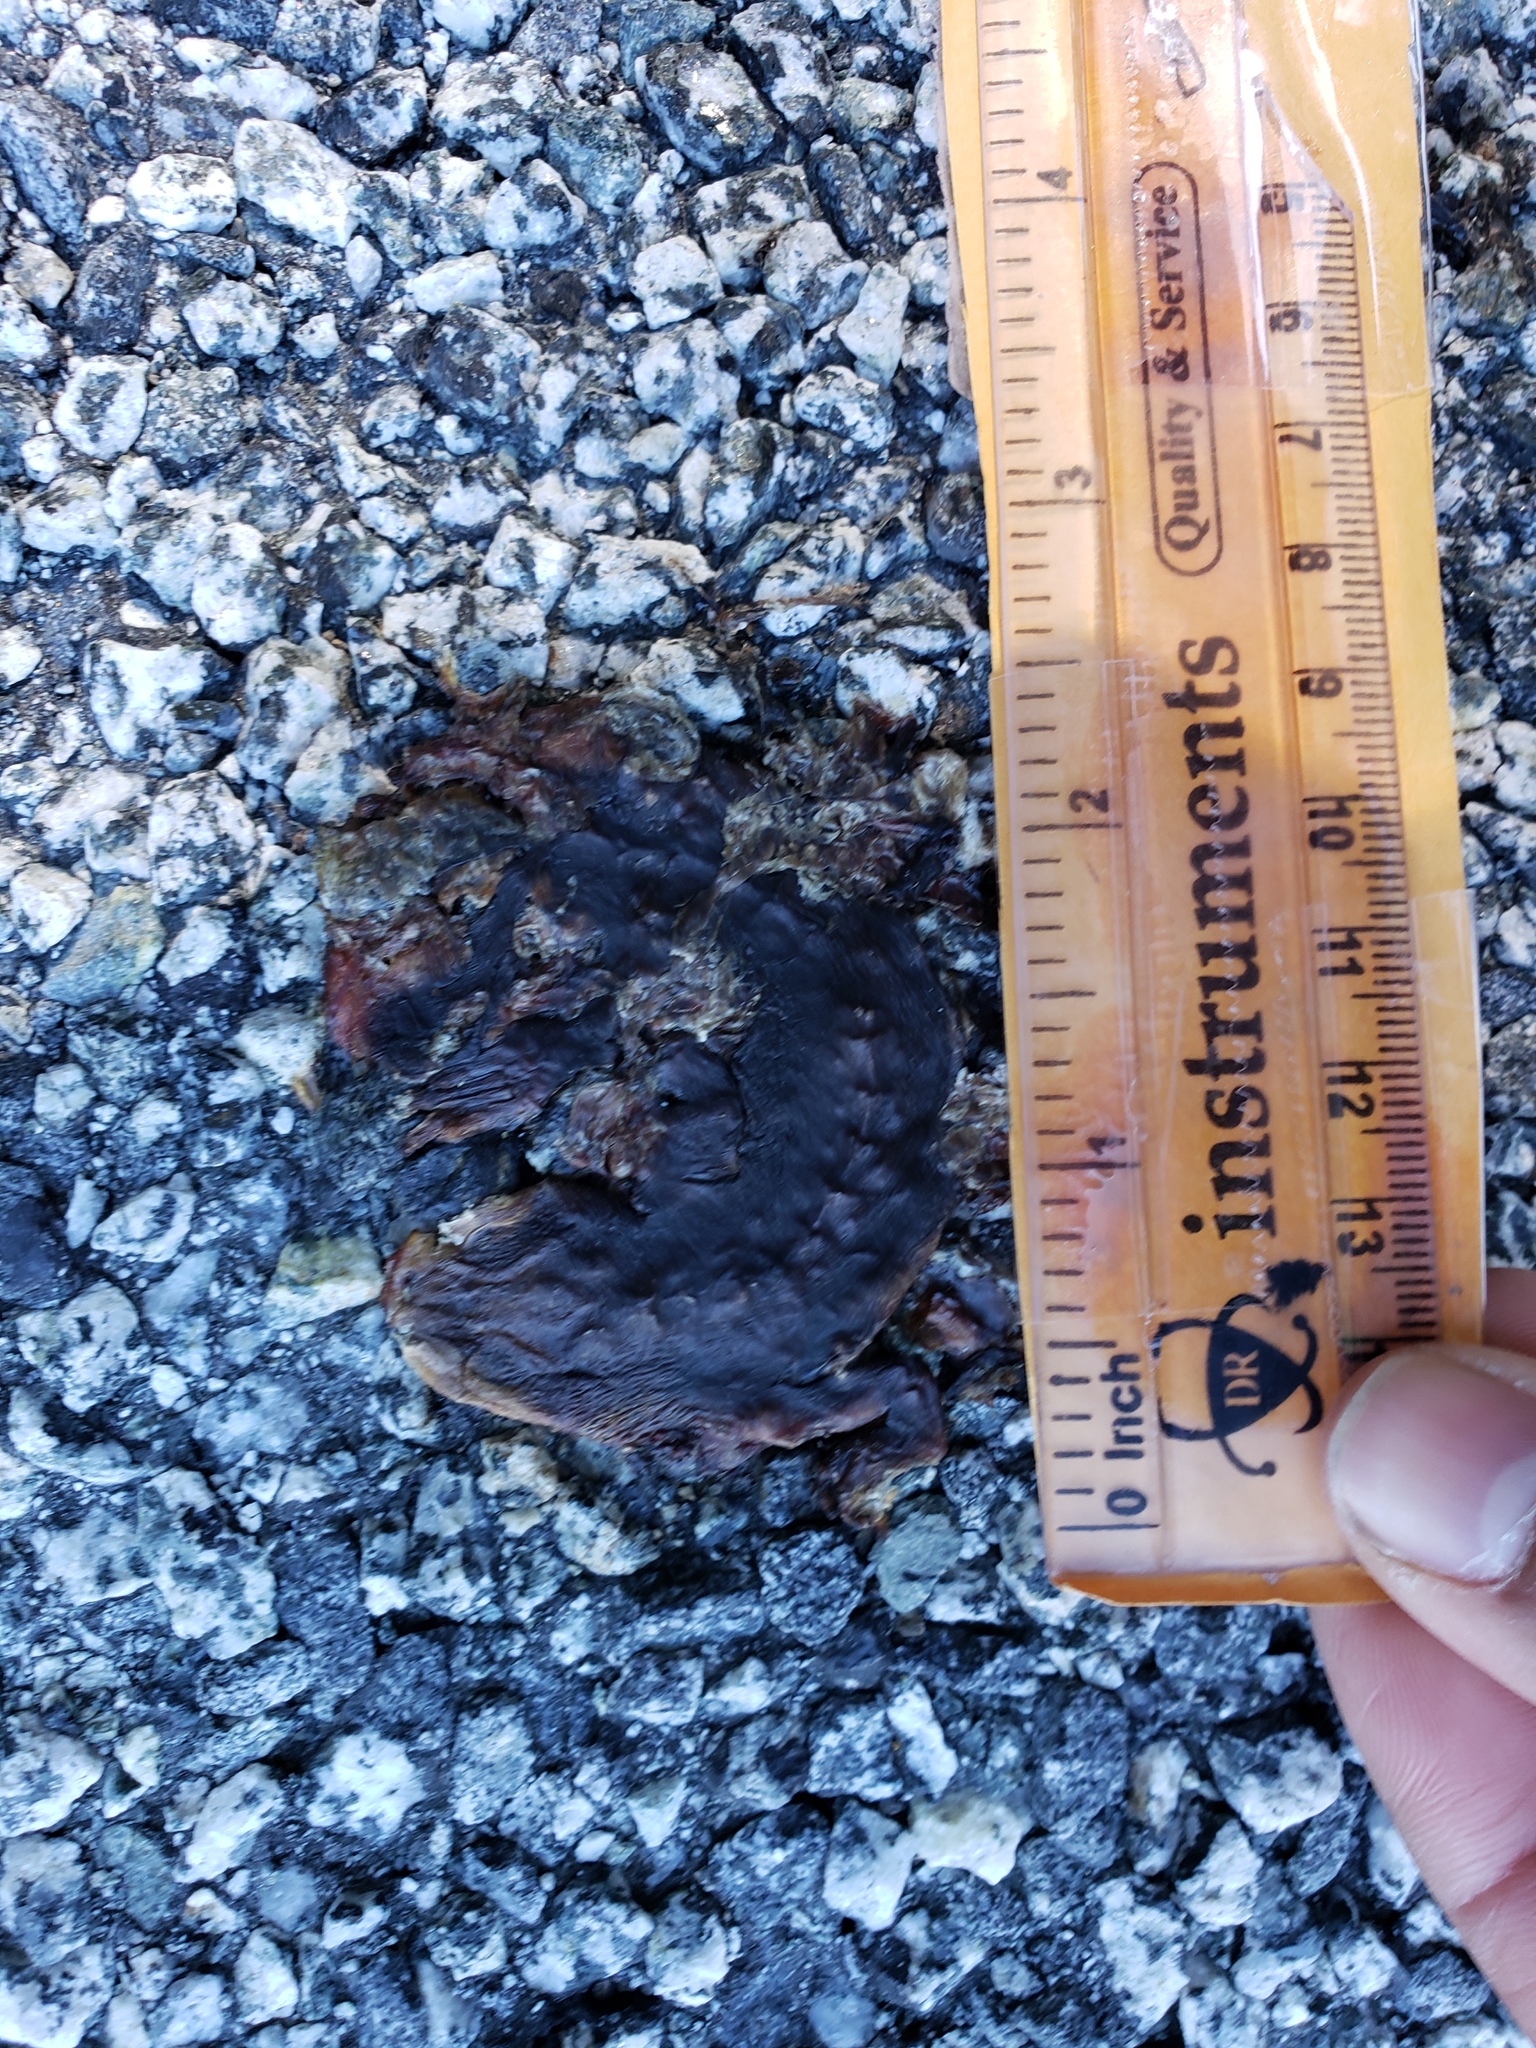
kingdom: Animalia
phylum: Chordata
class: Amphibia
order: Caudata
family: Salamandridae
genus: Taricha
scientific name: Taricha
